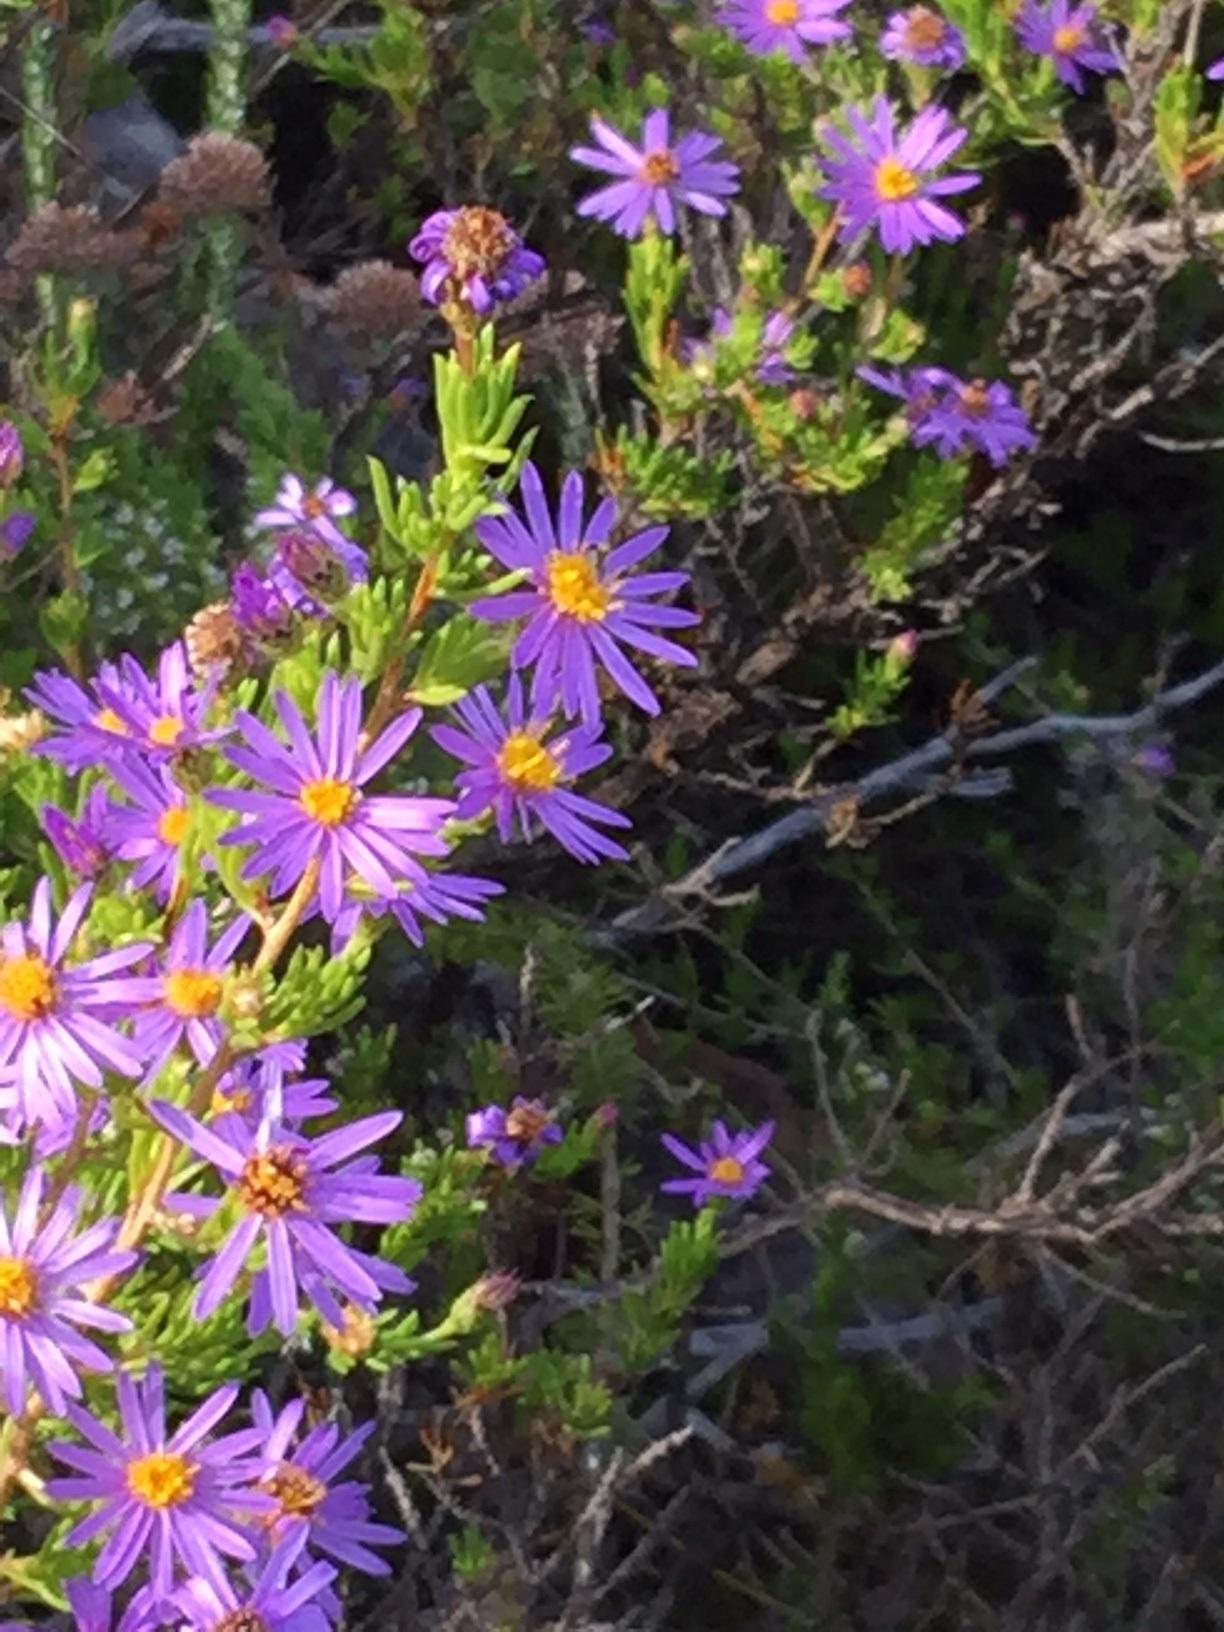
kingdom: Plantae
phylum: Tracheophyta
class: Magnoliopsida
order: Asterales
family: Asteraceae
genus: Felicia
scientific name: Felicia filifolia
